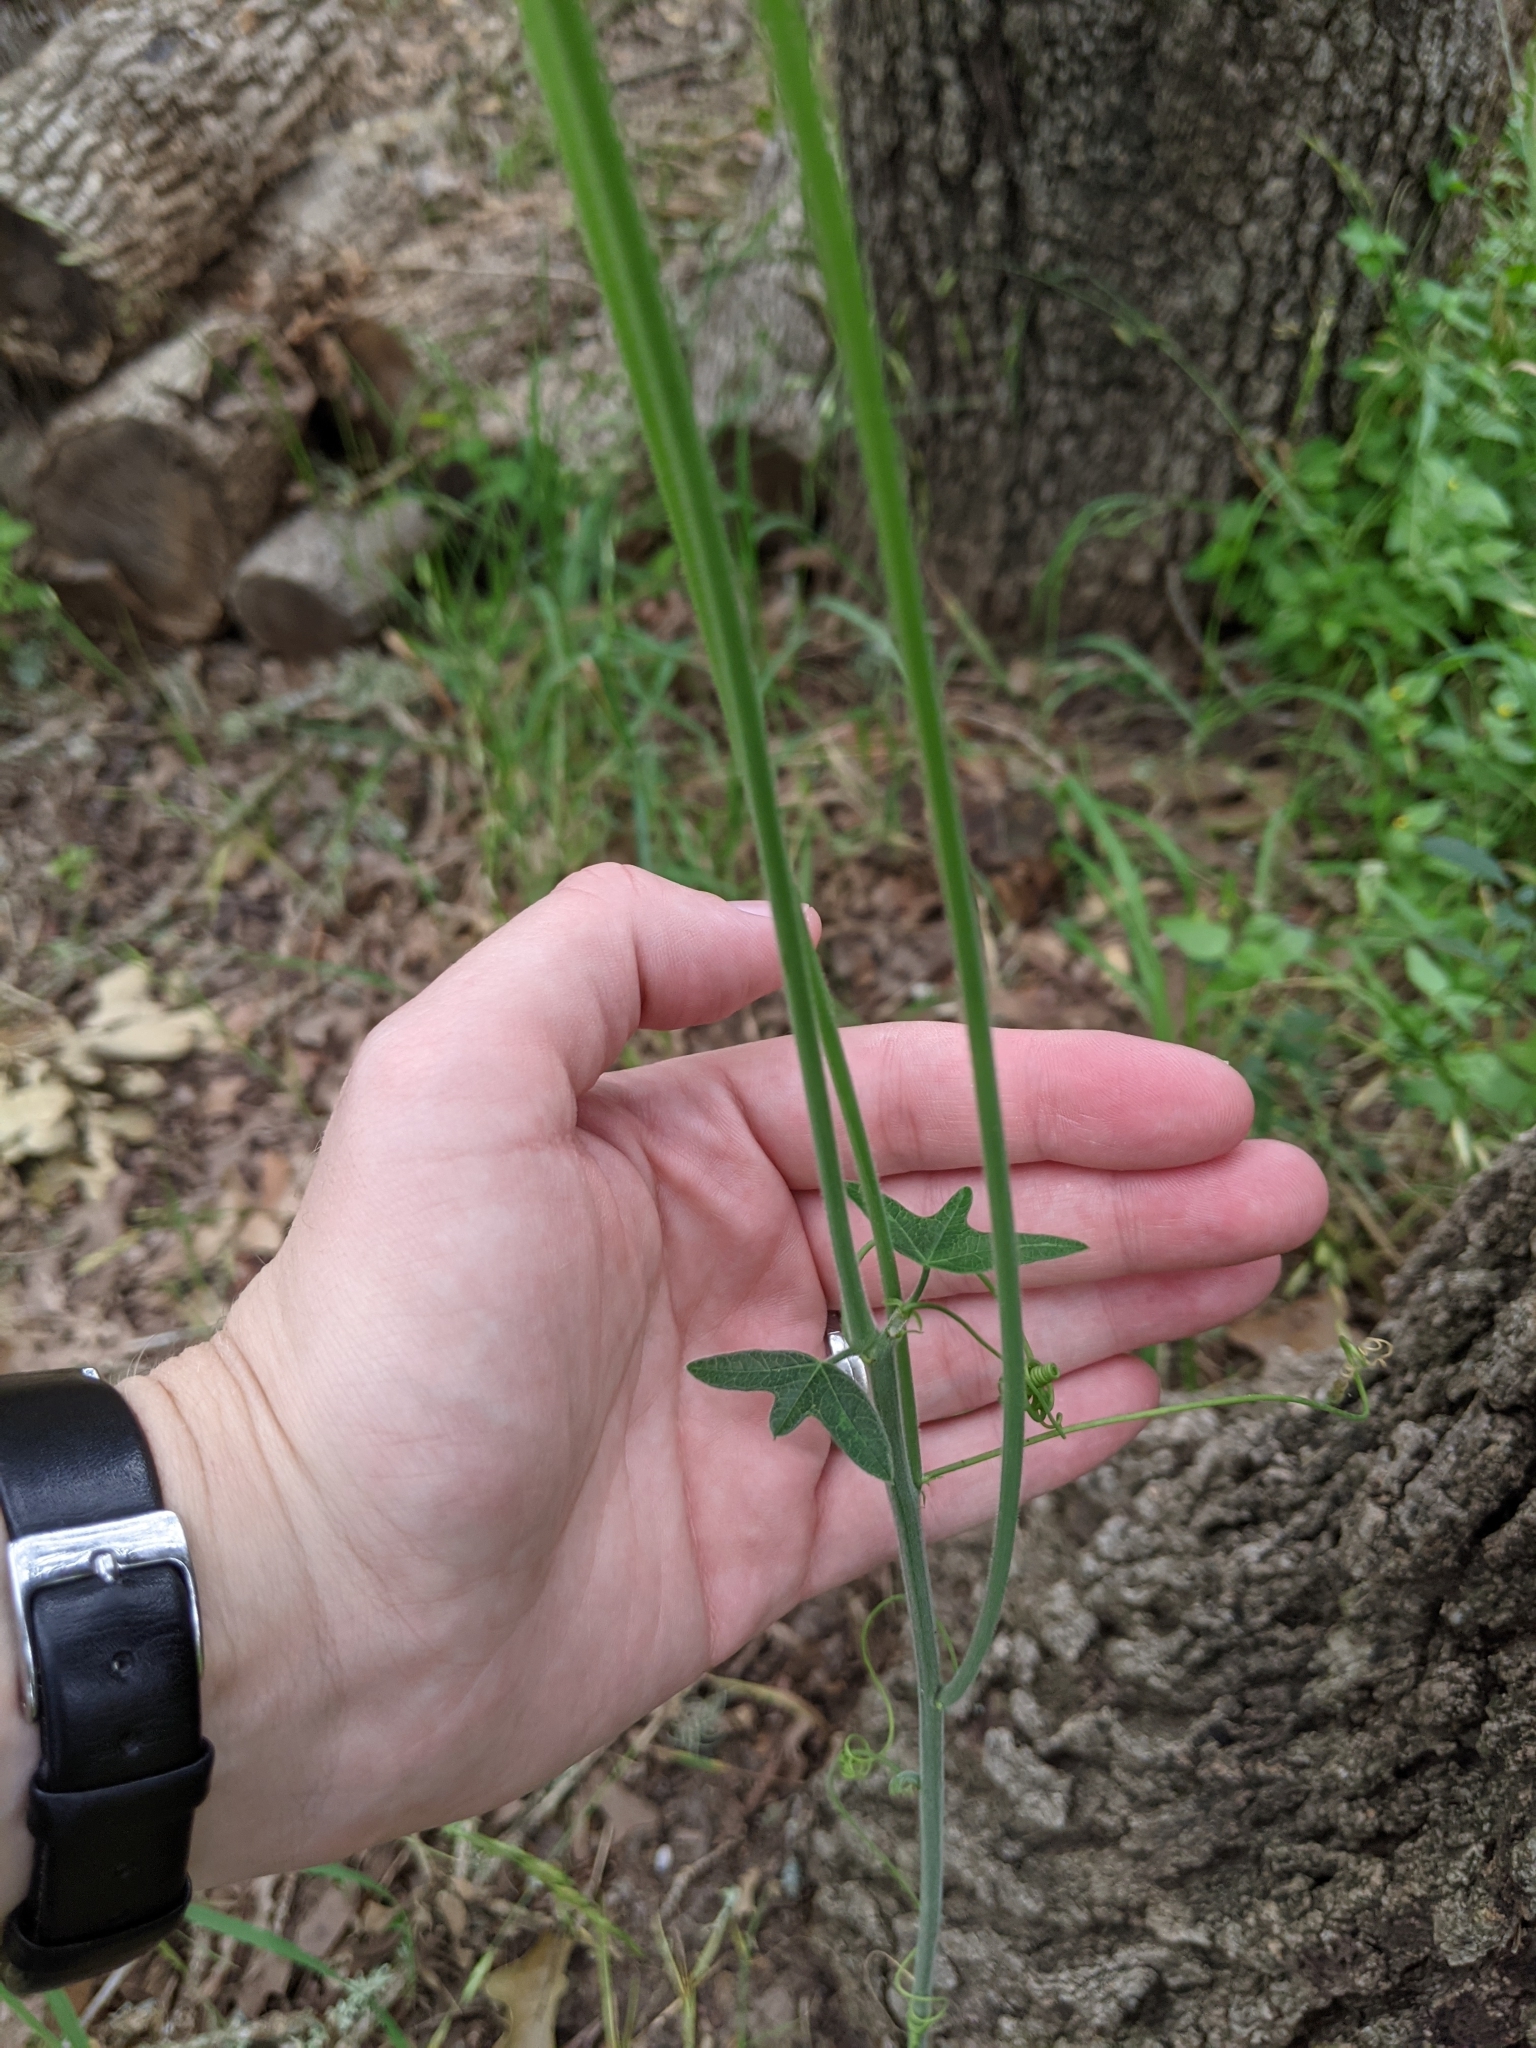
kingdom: Plantae
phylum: Tracheophyta
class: Magnoliopsida
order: Malpighiales
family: Passifloraceae
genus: Passiflora
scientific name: Passiflora lutea
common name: Yellow passionflower
